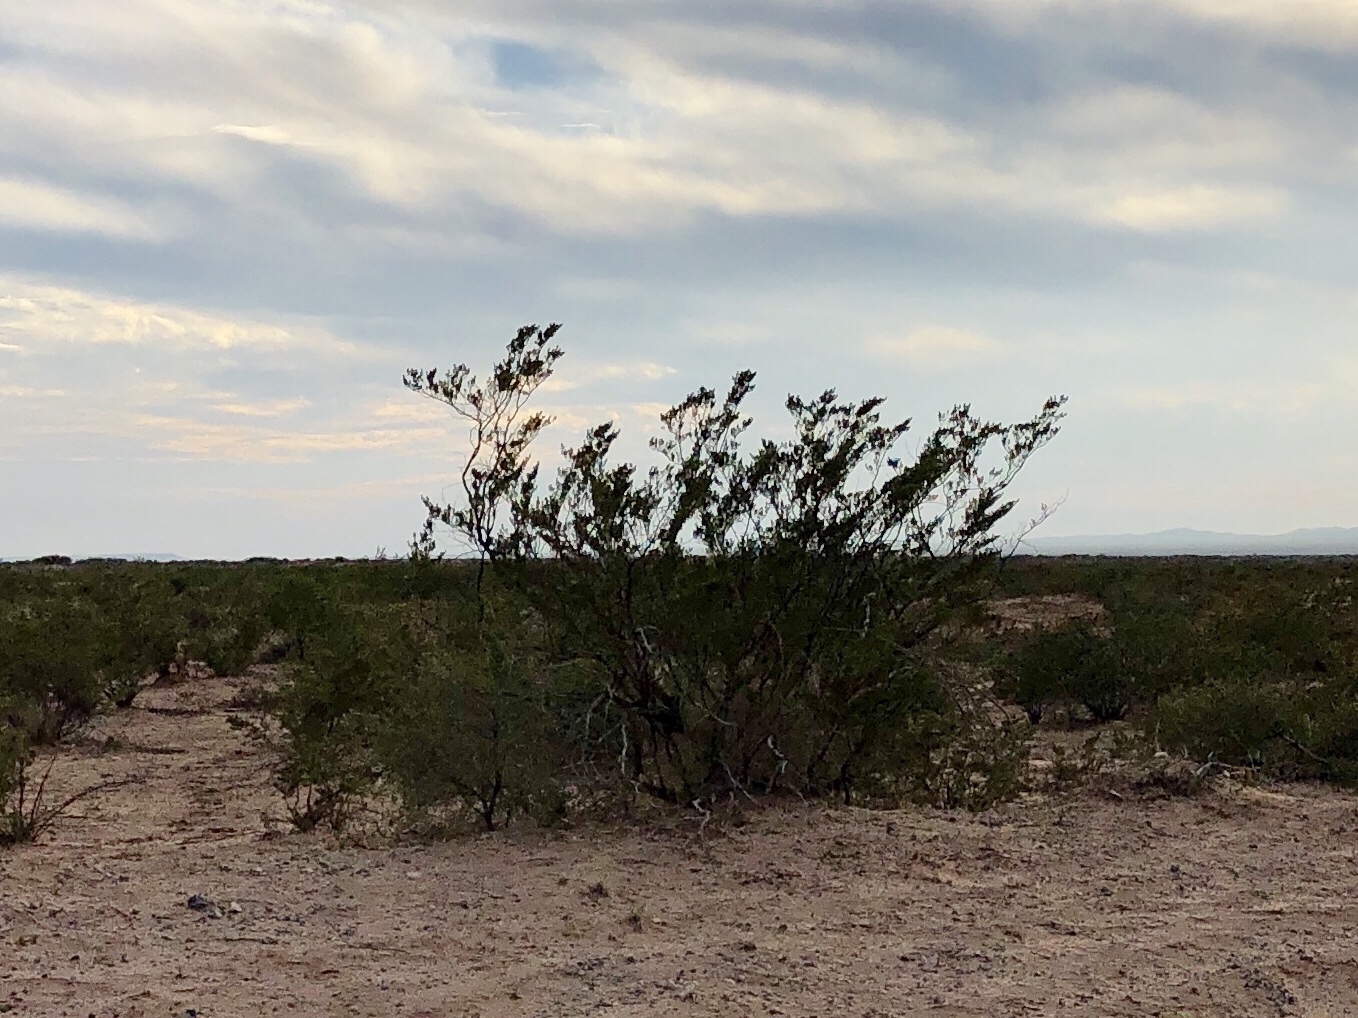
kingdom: Plantae
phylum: Tracheophyta
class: Magnoliopsida
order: Zygophyllales
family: Zygophyllaceae
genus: Larrea
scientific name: Larrea tridentata
